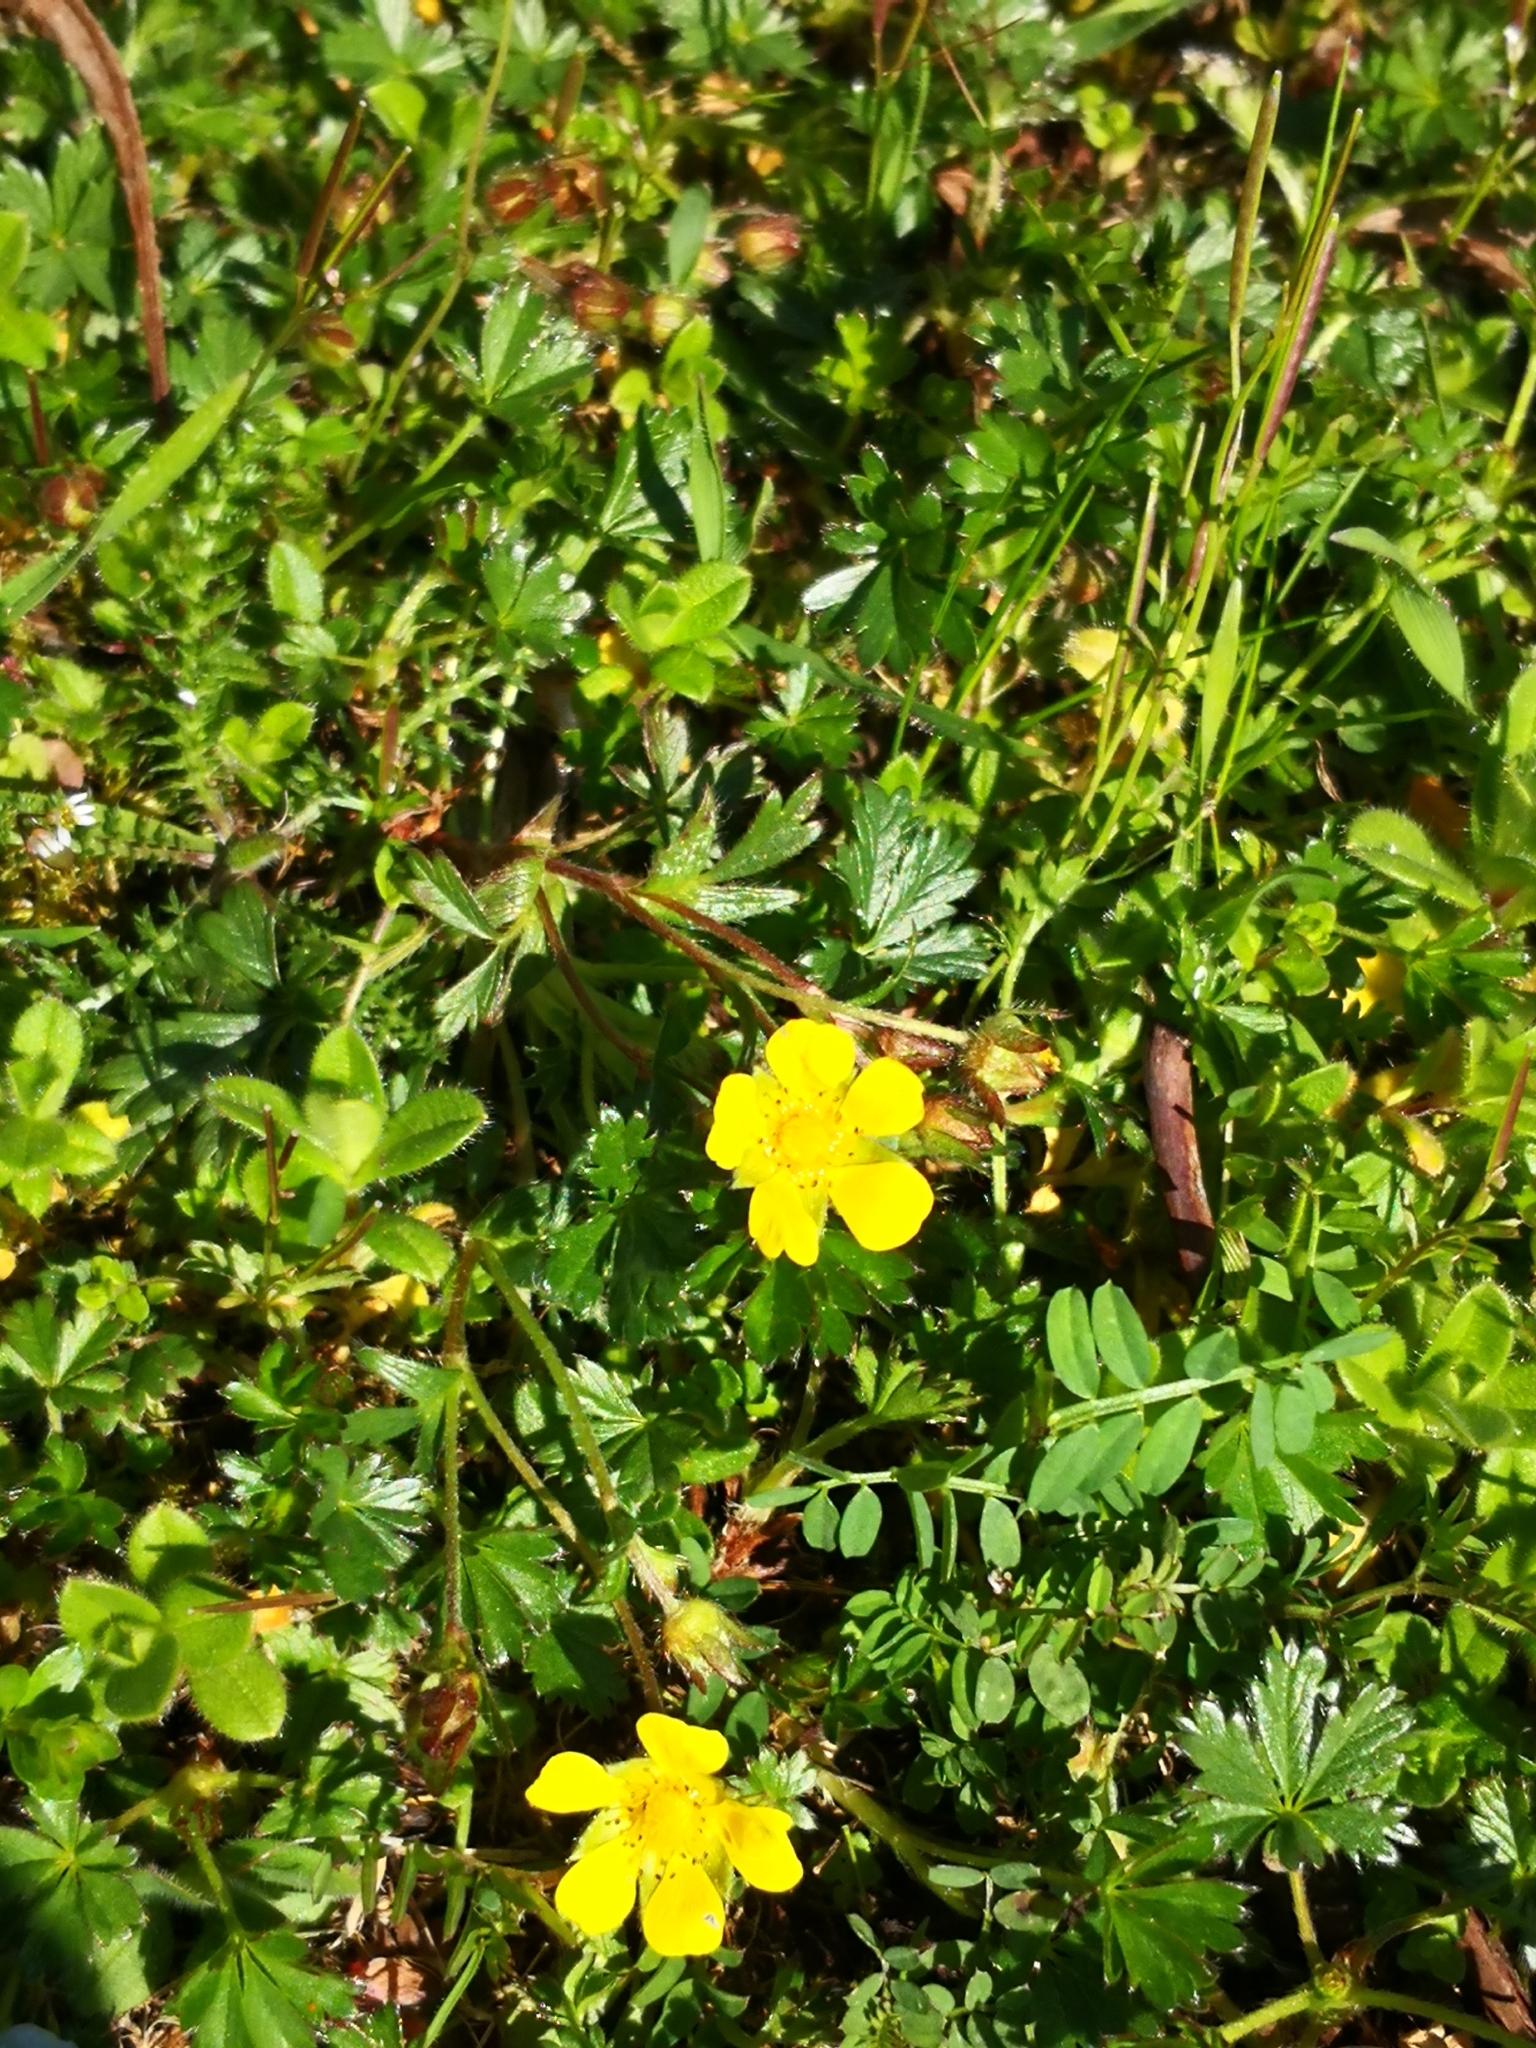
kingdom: Plantae
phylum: Tracheophyta
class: Magnoliopsida
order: Rosales
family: Rosaceae
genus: Potentilla
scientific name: Potentilla verna
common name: Spring cinquefoil
